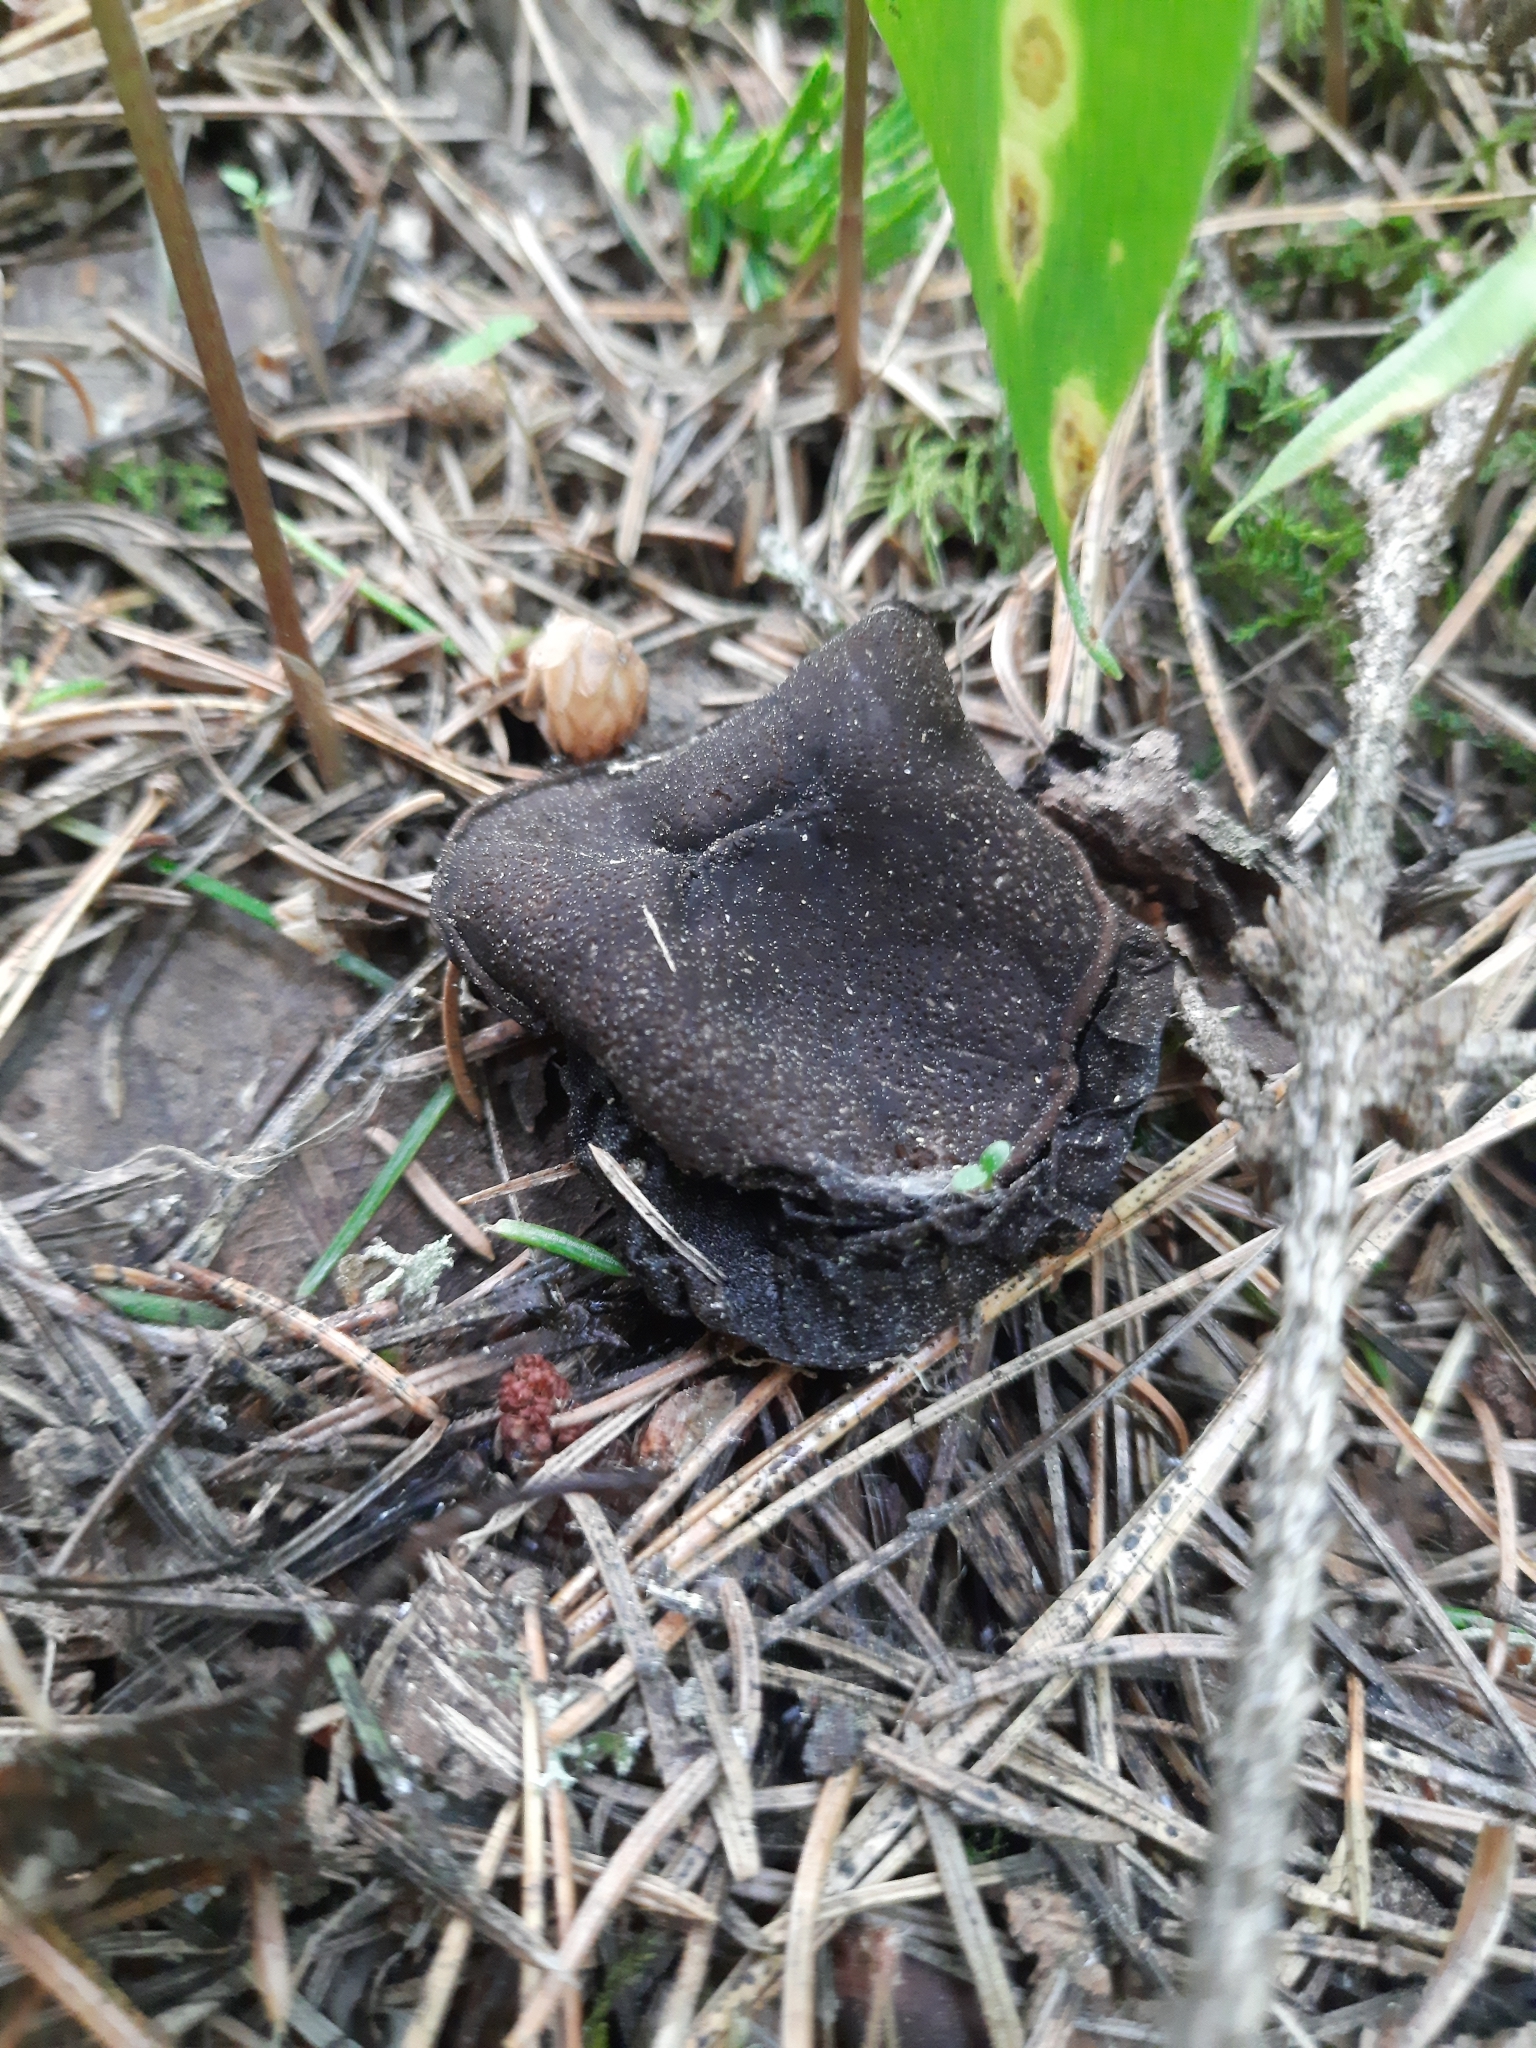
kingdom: Fungi
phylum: Ascomycota
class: Pezizomycetes
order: Pezizales
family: Sarcosomataceae
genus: Sarcosoma
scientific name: Sarcosoma globosum
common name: Charred-pancake cup
